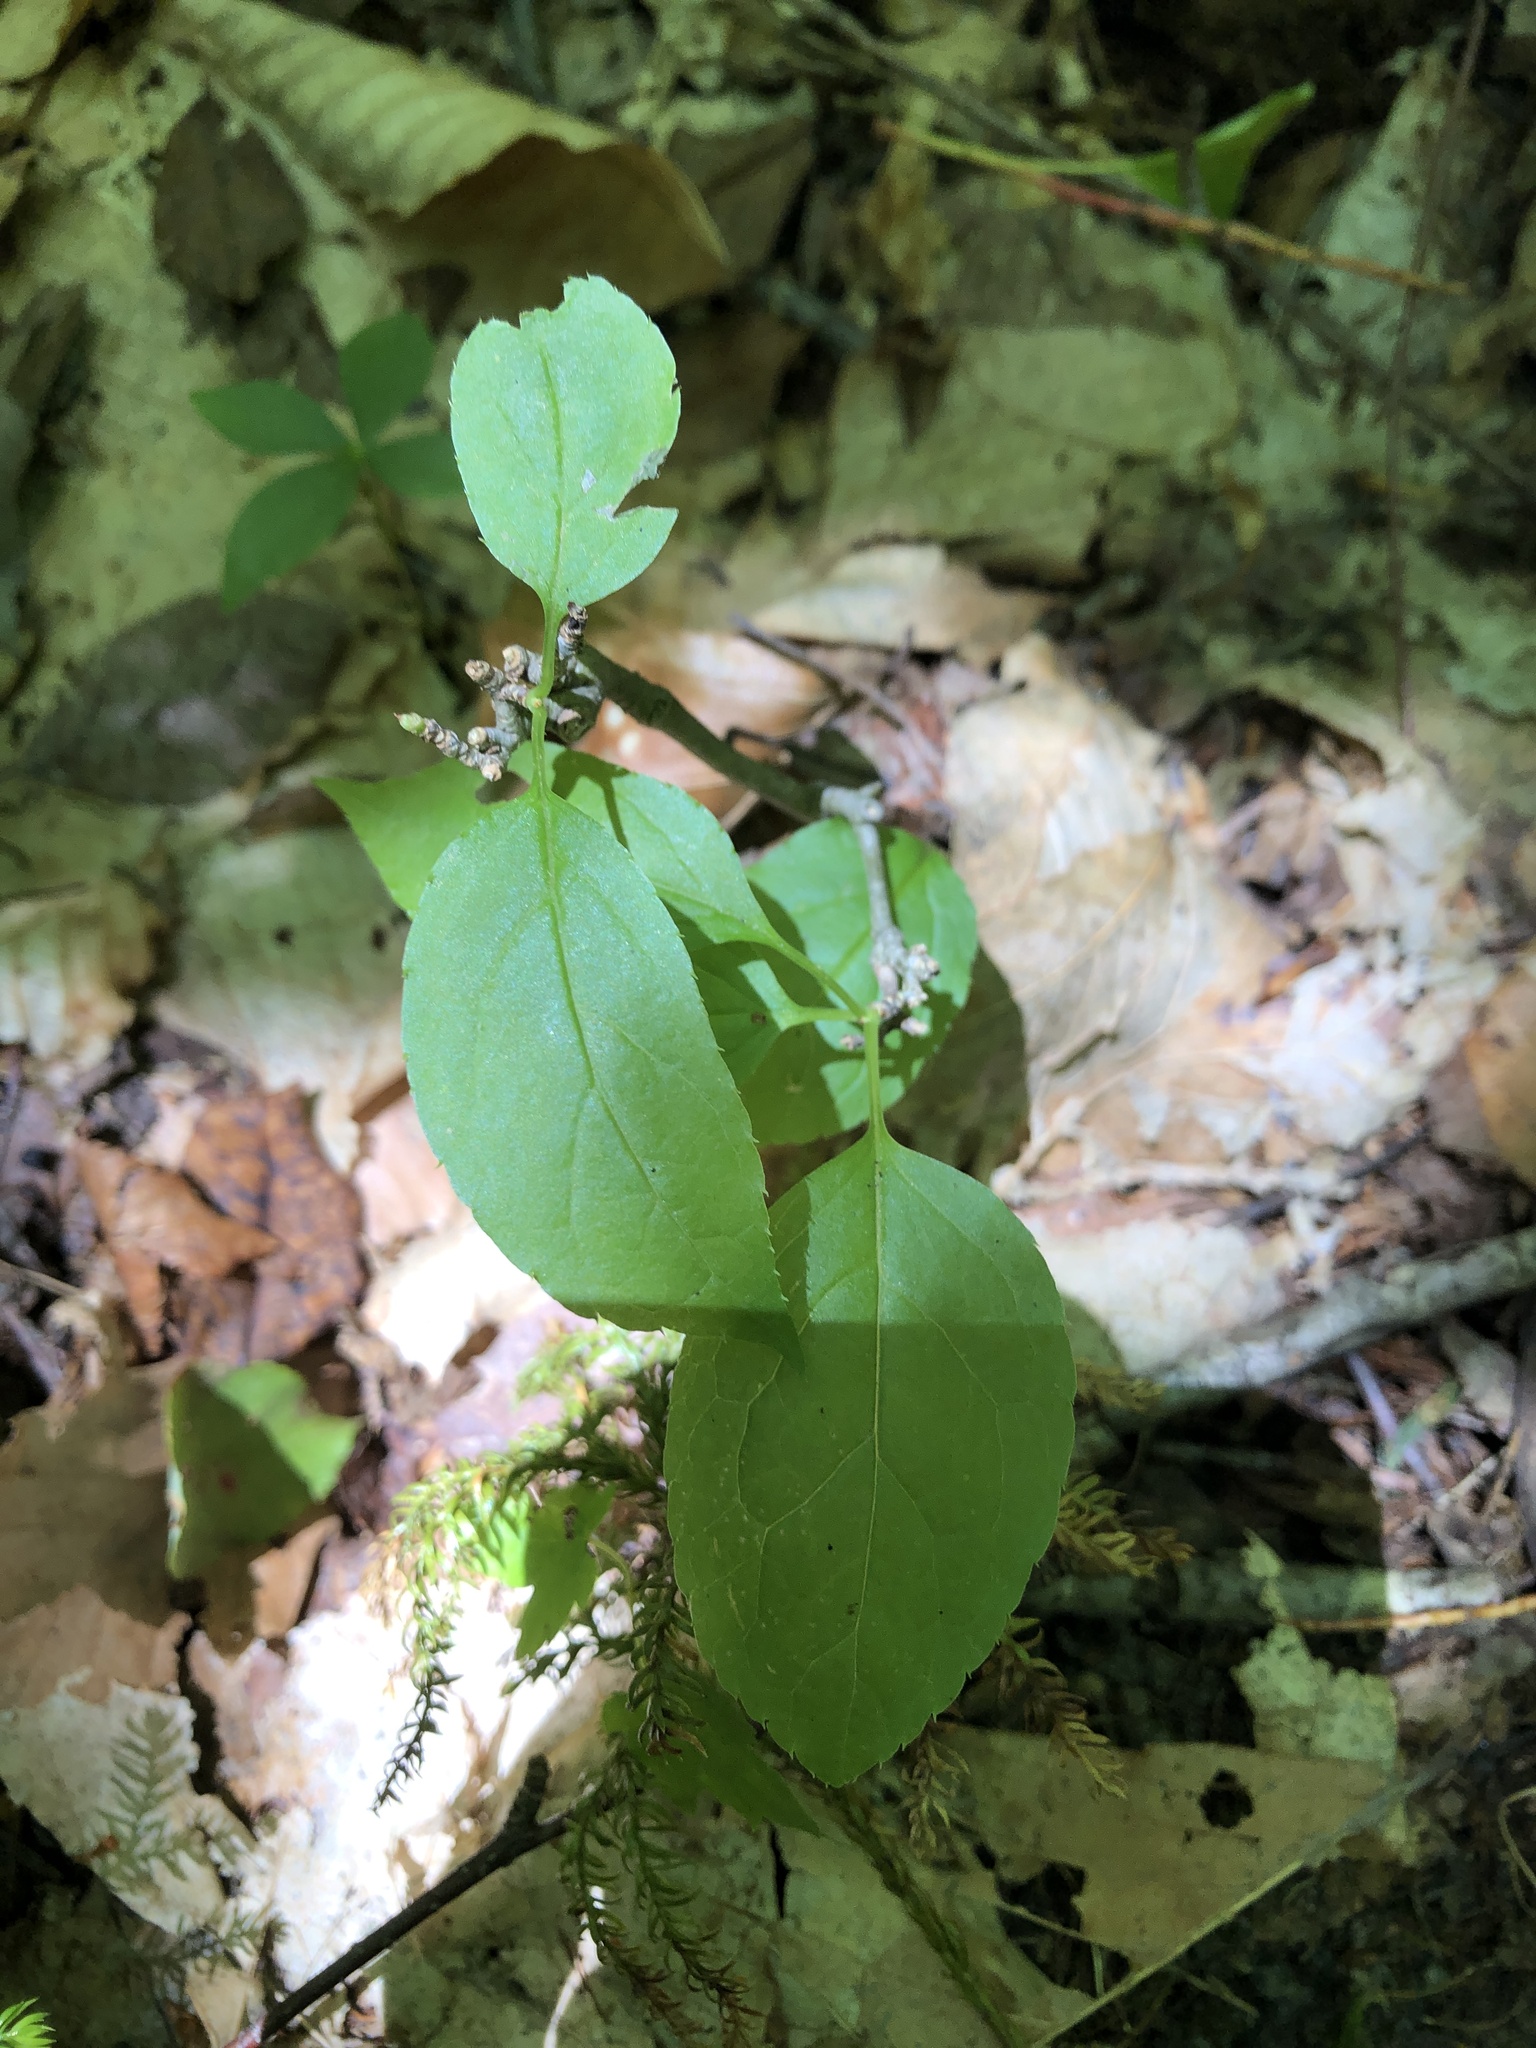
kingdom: Plantae
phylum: Tracheophyta
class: Magnoliopsida
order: Aquifoliales
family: Aquifoliaceae
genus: Ilex
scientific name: Ilex montana
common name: Mountain winterberry
